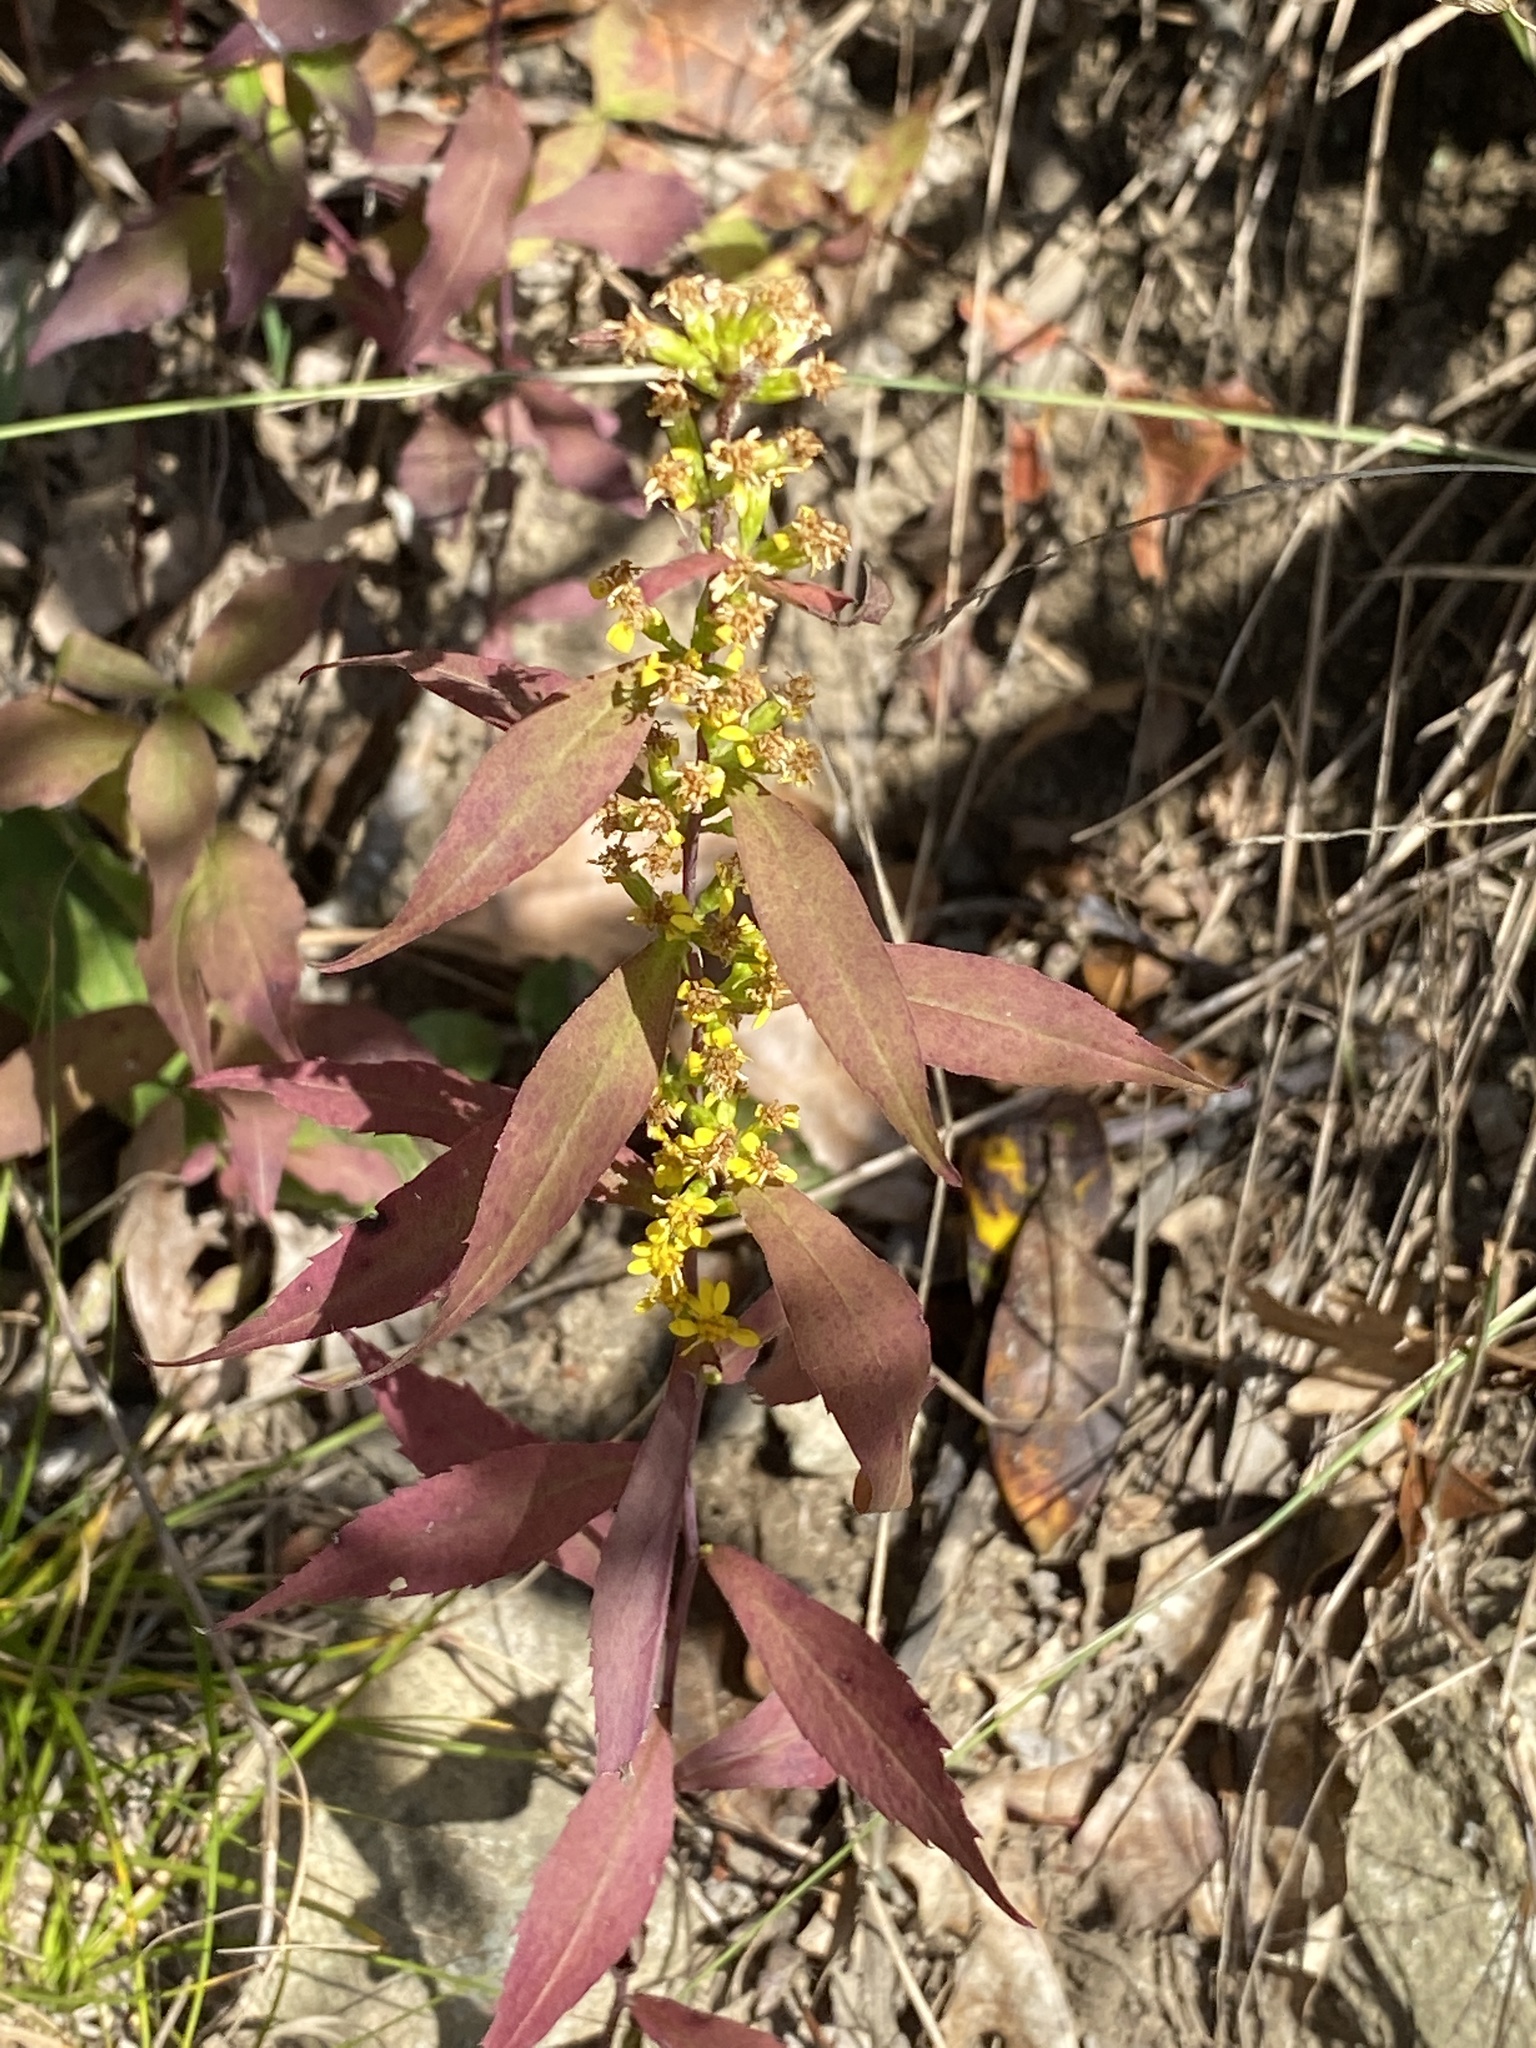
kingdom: Plantae
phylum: Tracheophyta
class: Magnoliopsida
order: Asterales
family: Asteraceae
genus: Solidago
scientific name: Solidago caesia
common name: Woodland goldenrod
